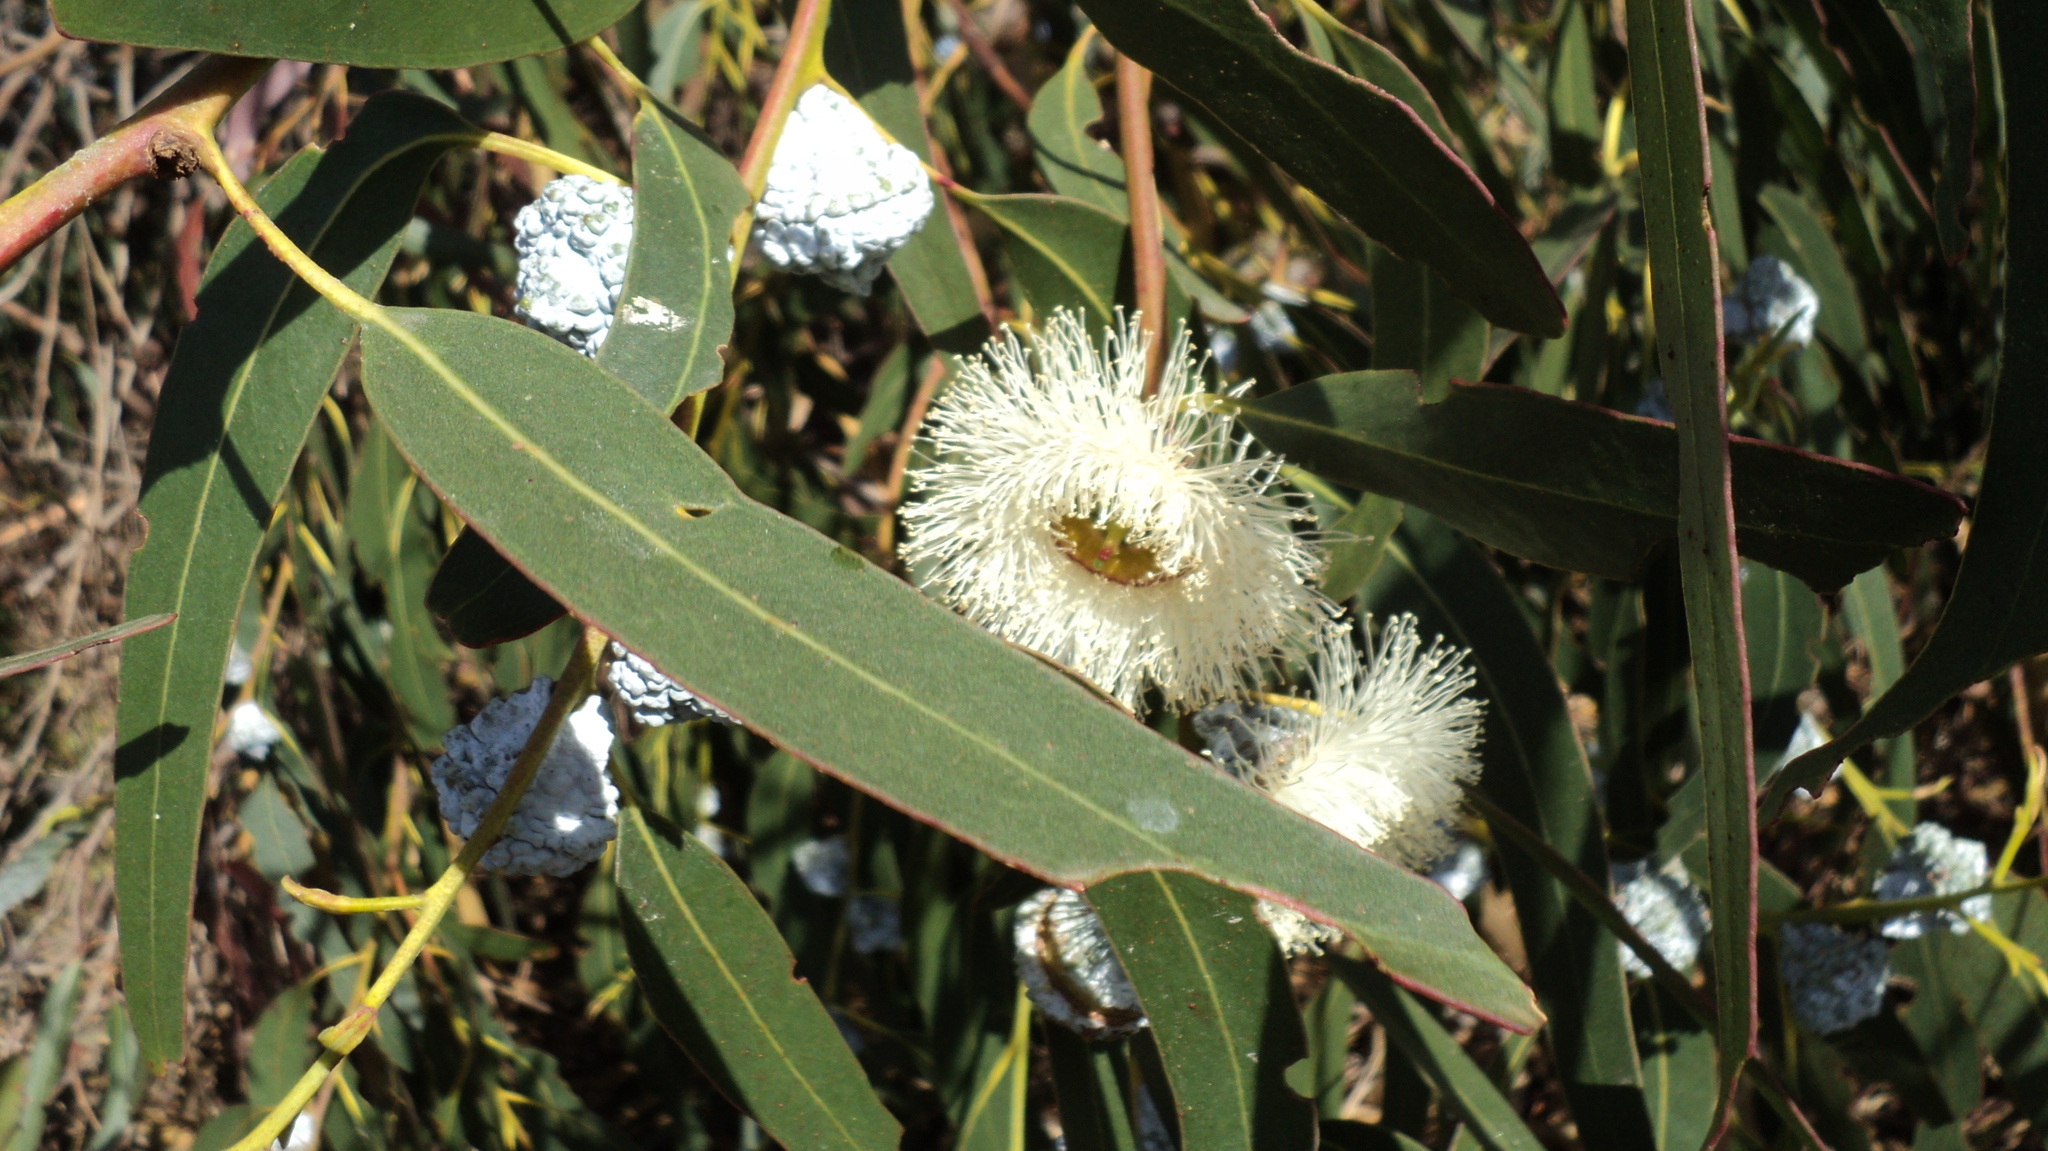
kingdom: Plantae
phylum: Tracheophyta
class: Magnoliopsida
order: Myrtales
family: Myrtaceae
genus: Eucalyptus
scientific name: Eucalyptus globulus
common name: Southern blue-gum
